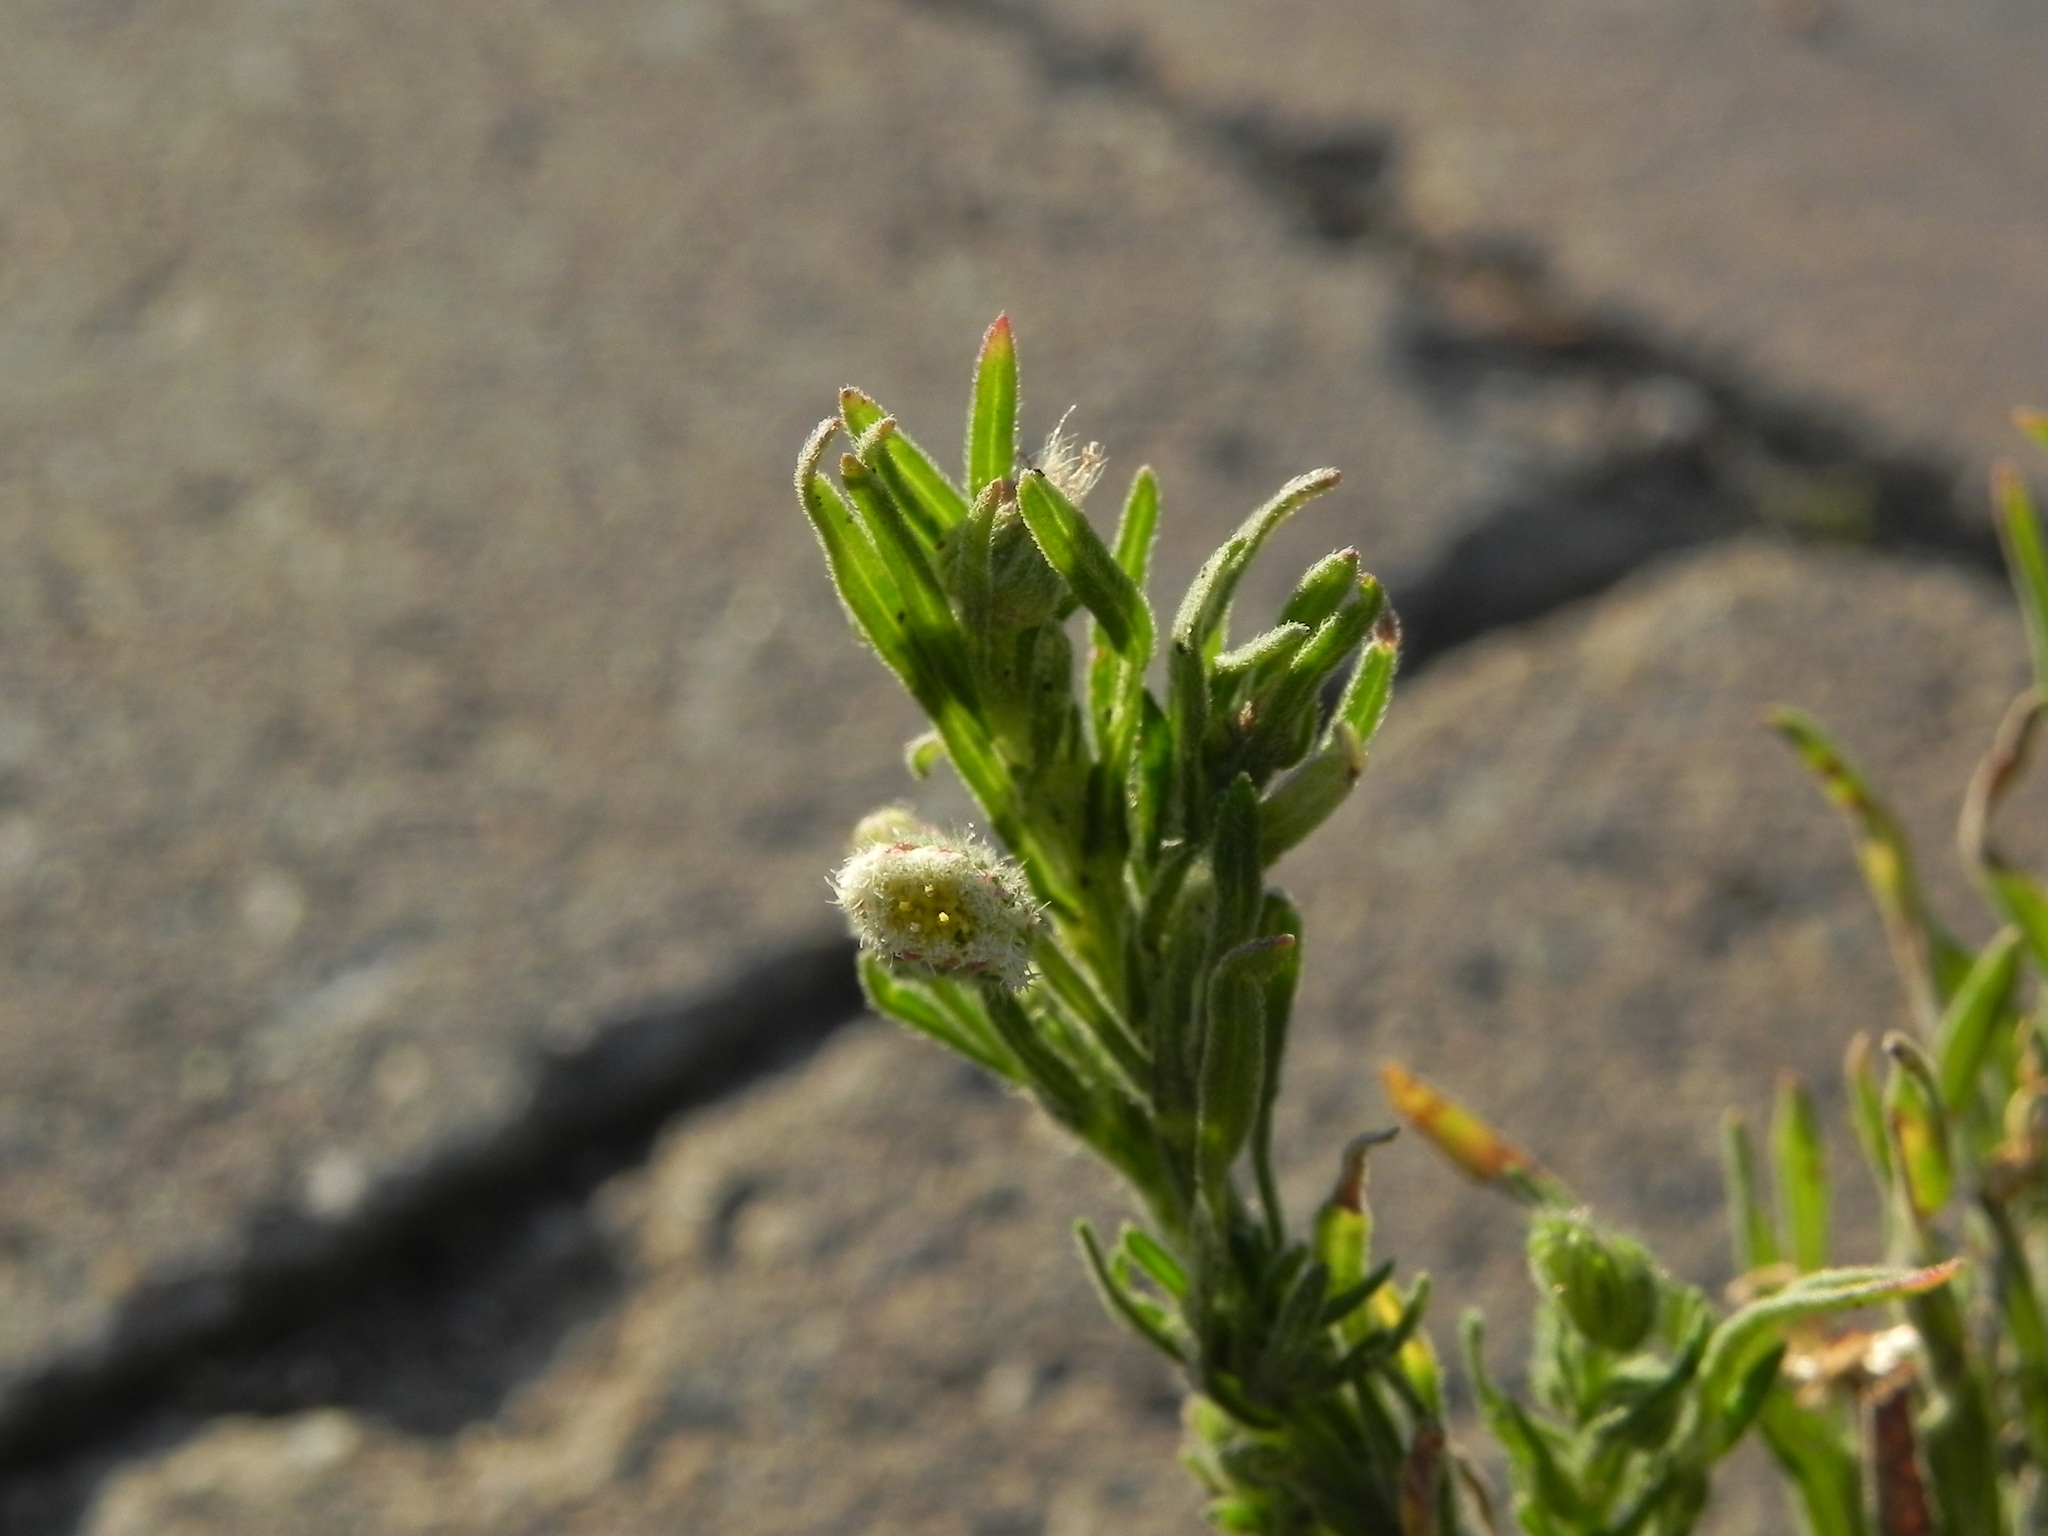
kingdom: Plantae
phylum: Tracheophyta
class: Magnoliopsida
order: Asterales
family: Asteraceae
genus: Erigeron
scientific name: Erigeron sumatrensis
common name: Daisy
